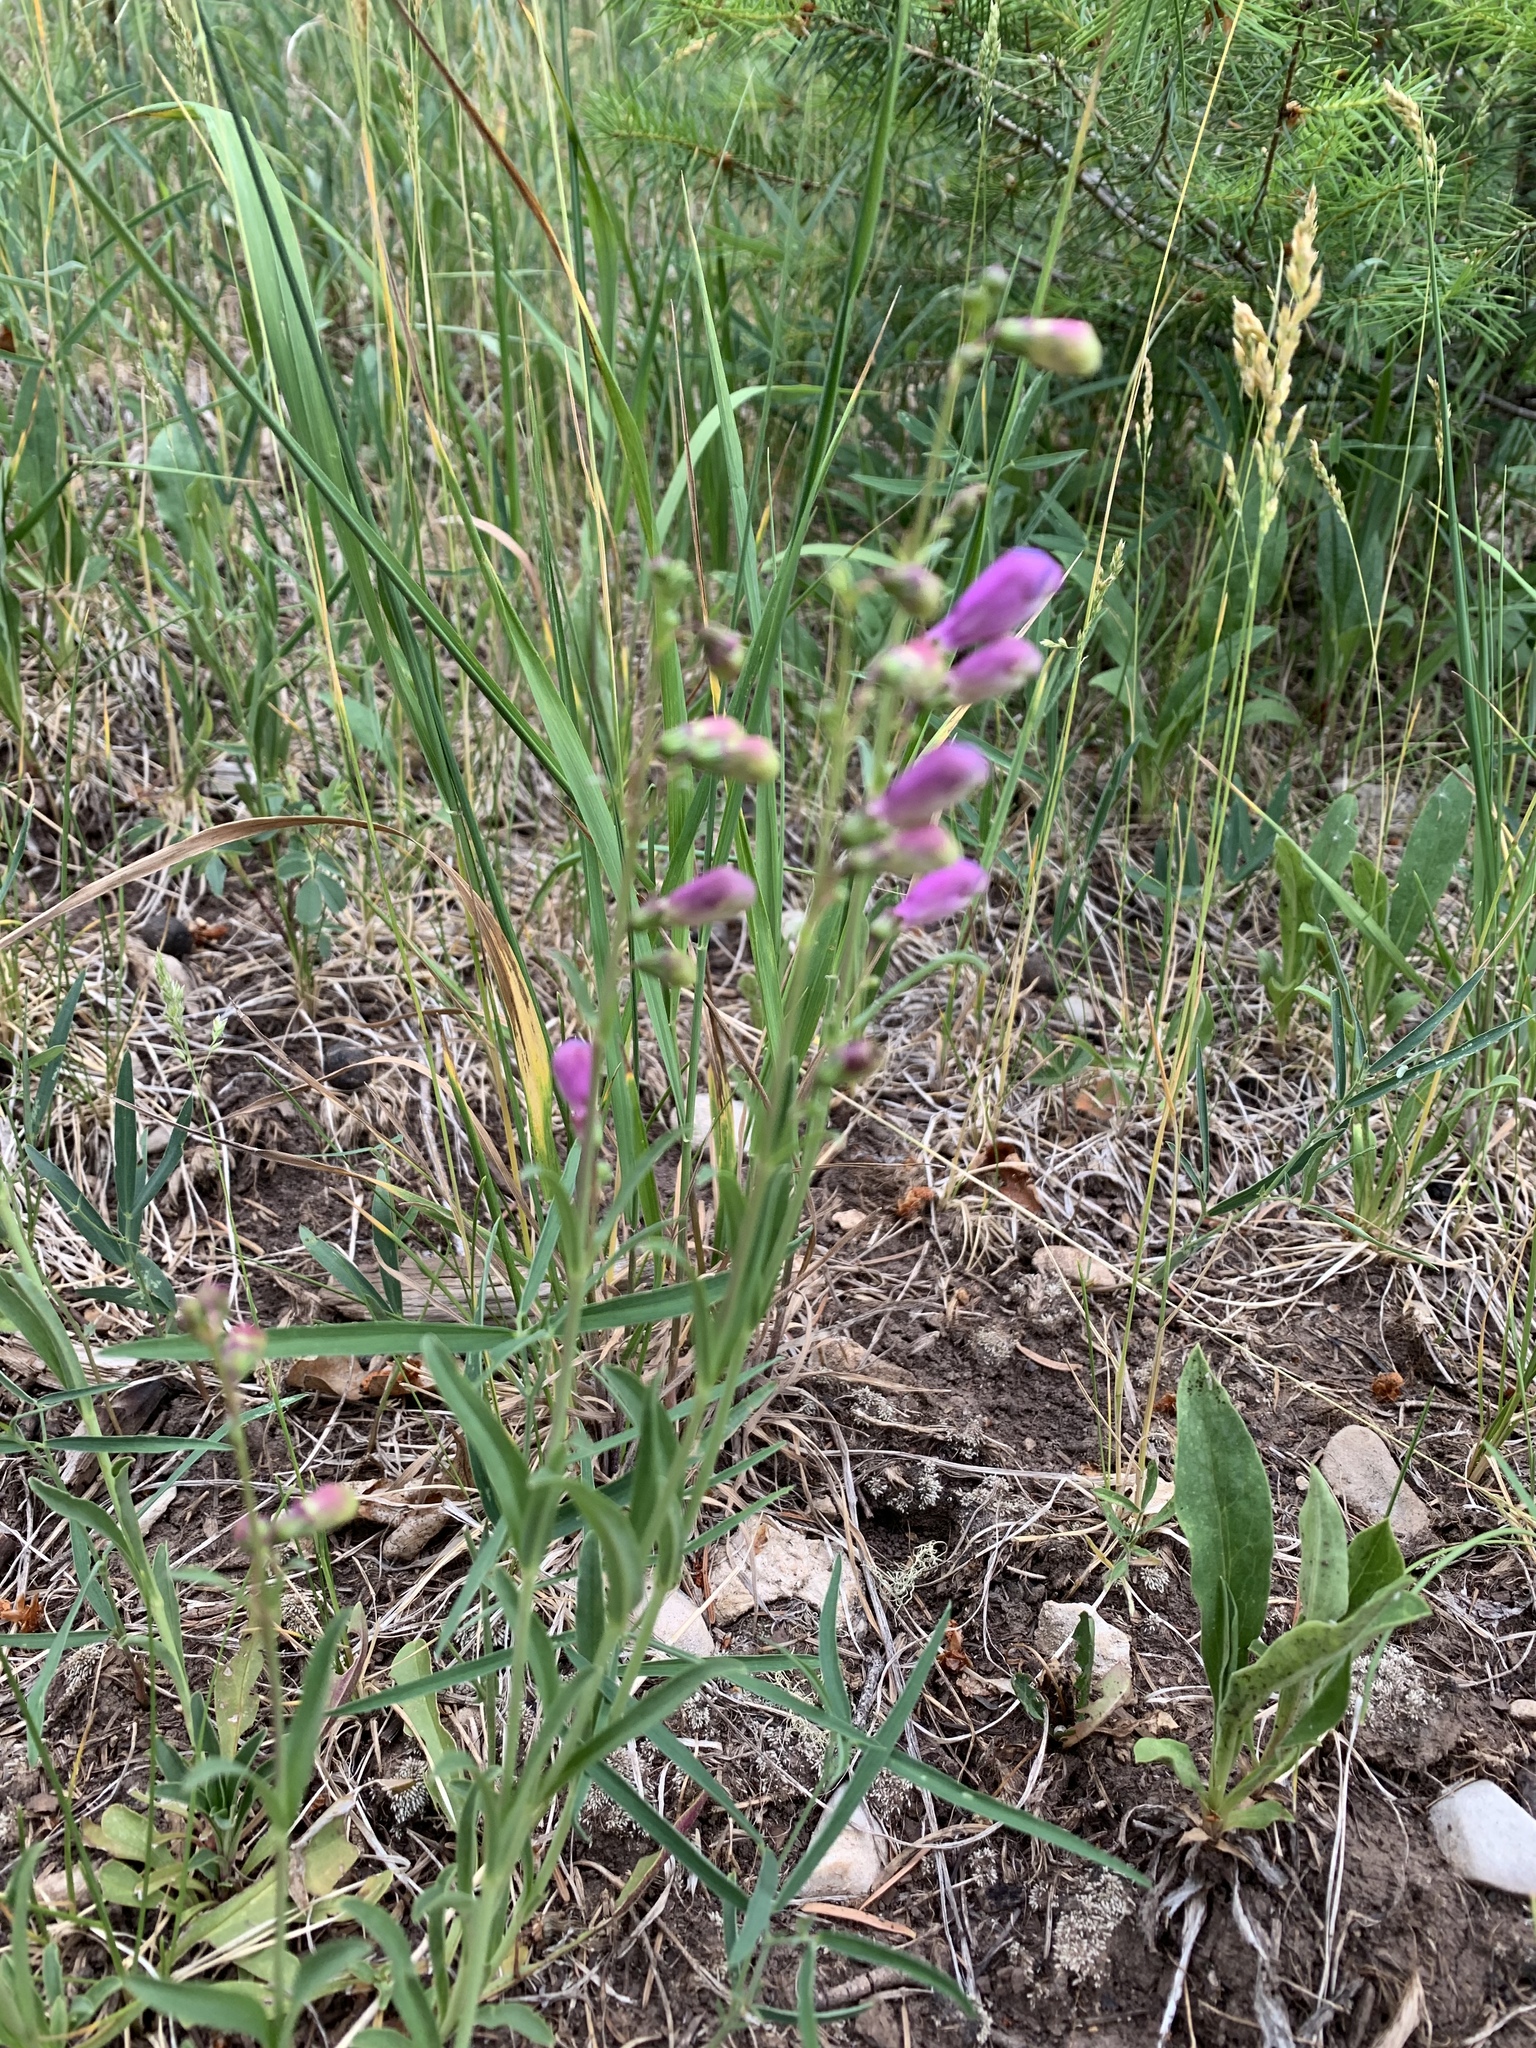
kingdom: Plantae
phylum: Tracheophyta
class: Magnoliopsida
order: Lamiales
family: Plantaginaceae
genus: Penstemon
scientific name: Penstemon neomexicanus
